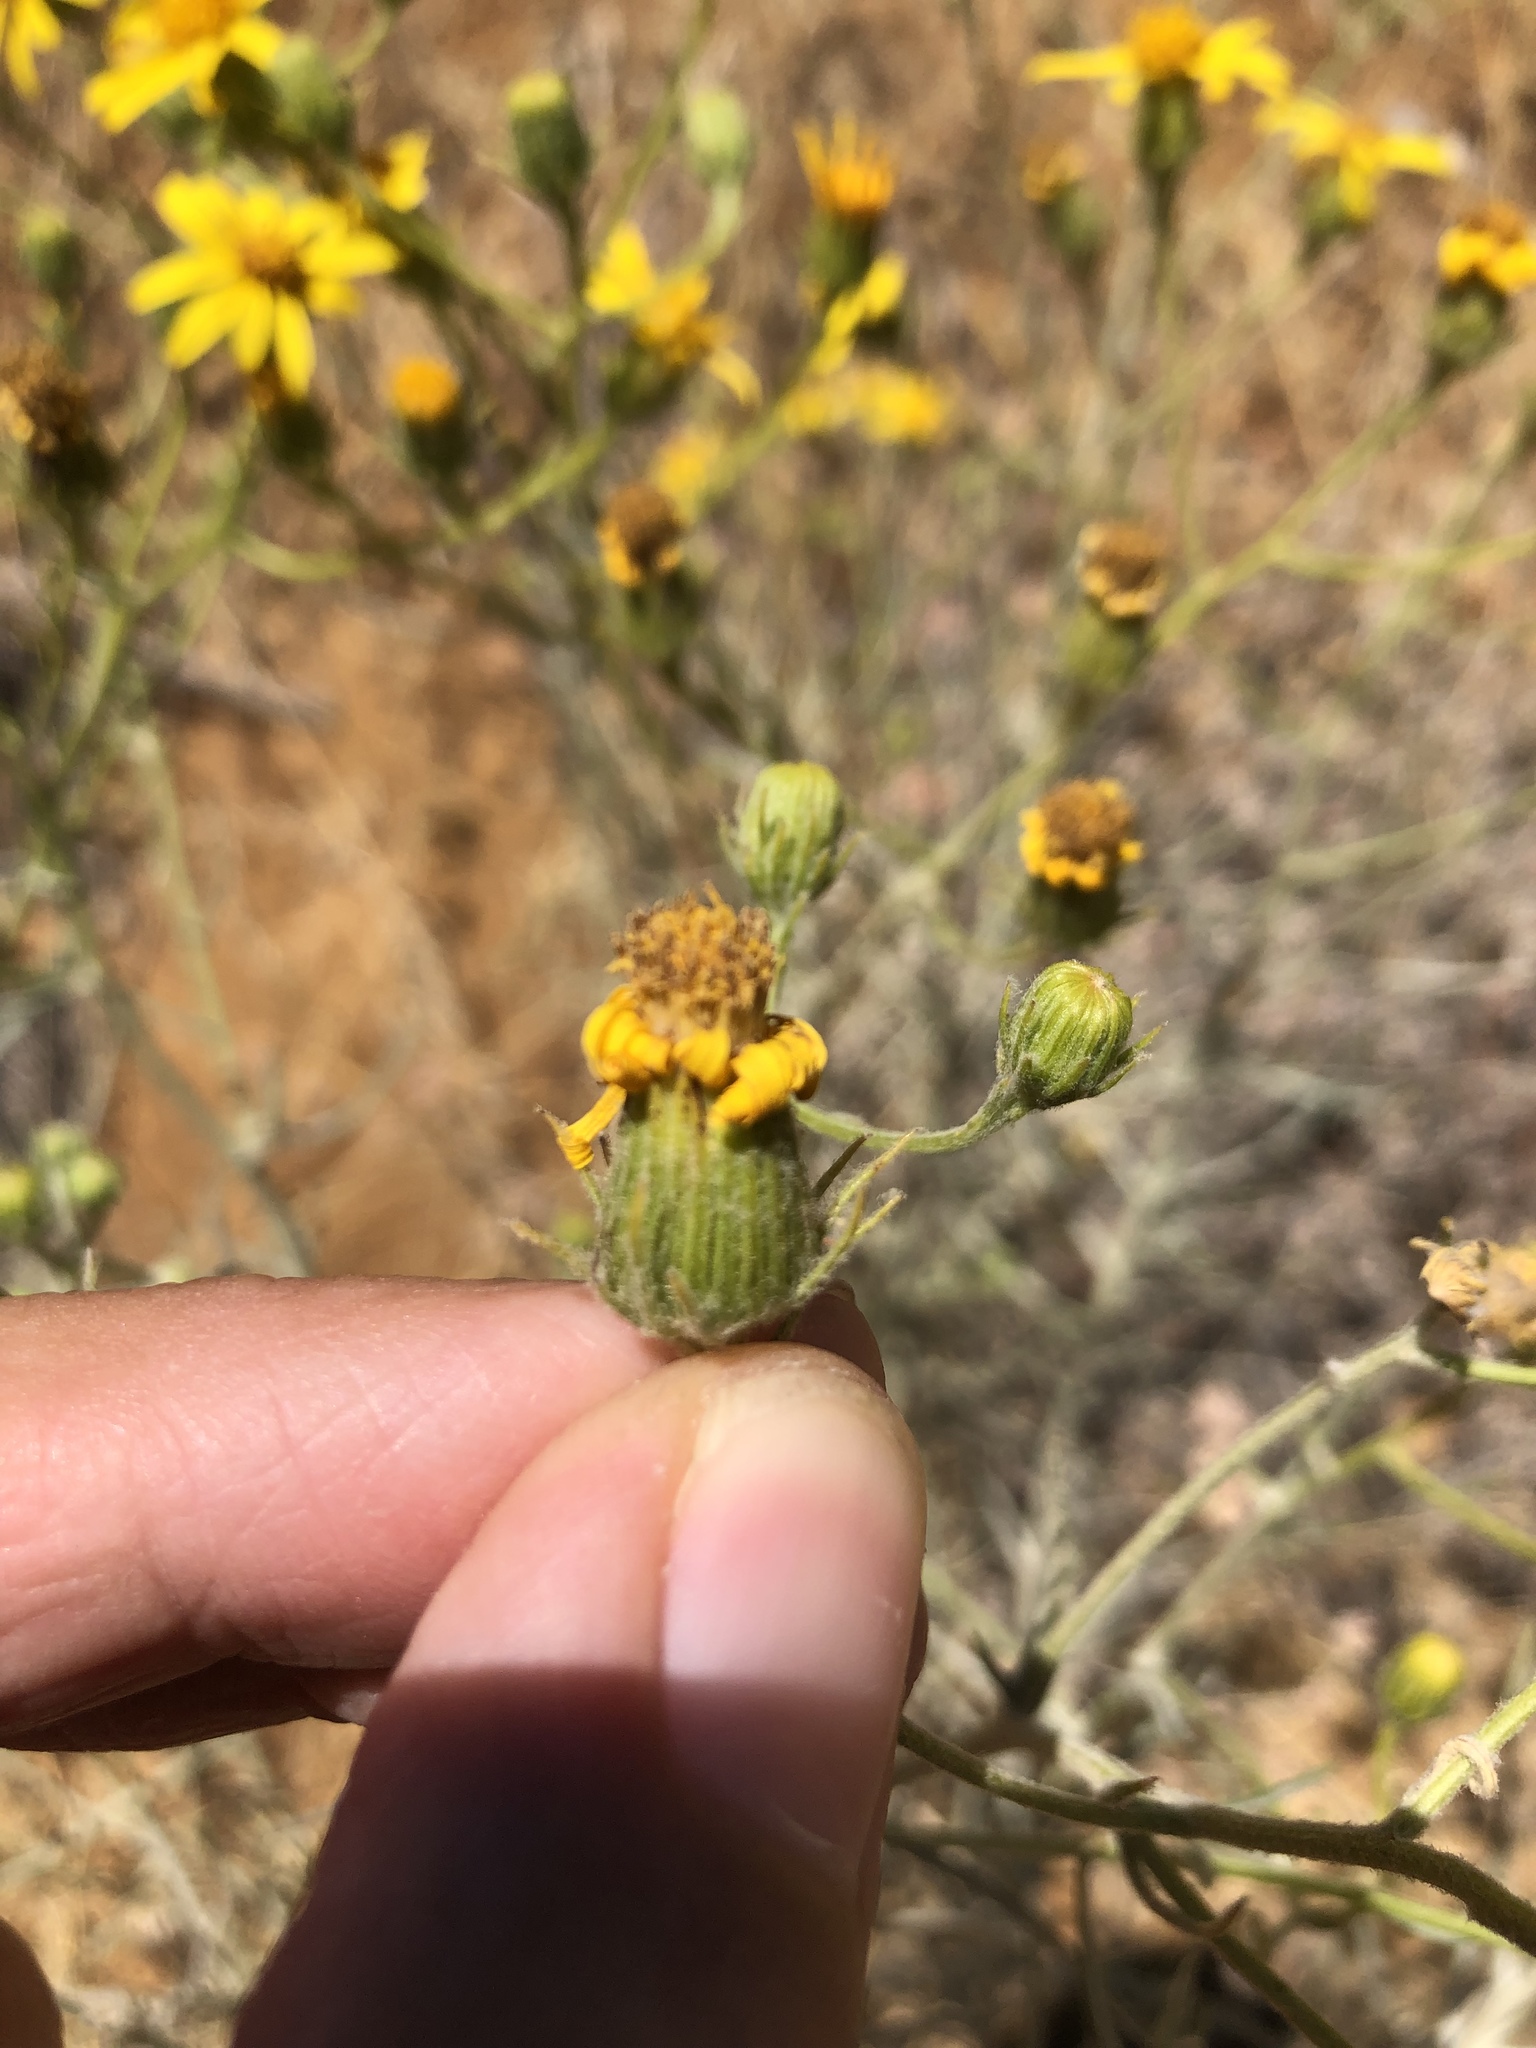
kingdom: Plantae
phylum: Tracheophyta
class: Magnoliopsida
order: Asterales
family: Asteraceae
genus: Senecio
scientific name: Senecio flaccidus
